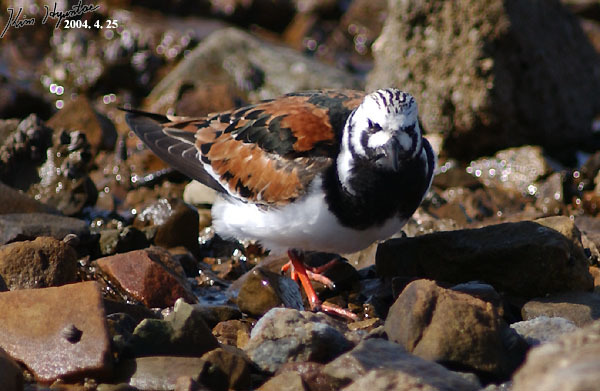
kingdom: Animalia
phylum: Chordata
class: Aves
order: Charadriiformes
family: Scolopacidae
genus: Arenaria
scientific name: Arenaria interpres
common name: Ruddy turnstone
